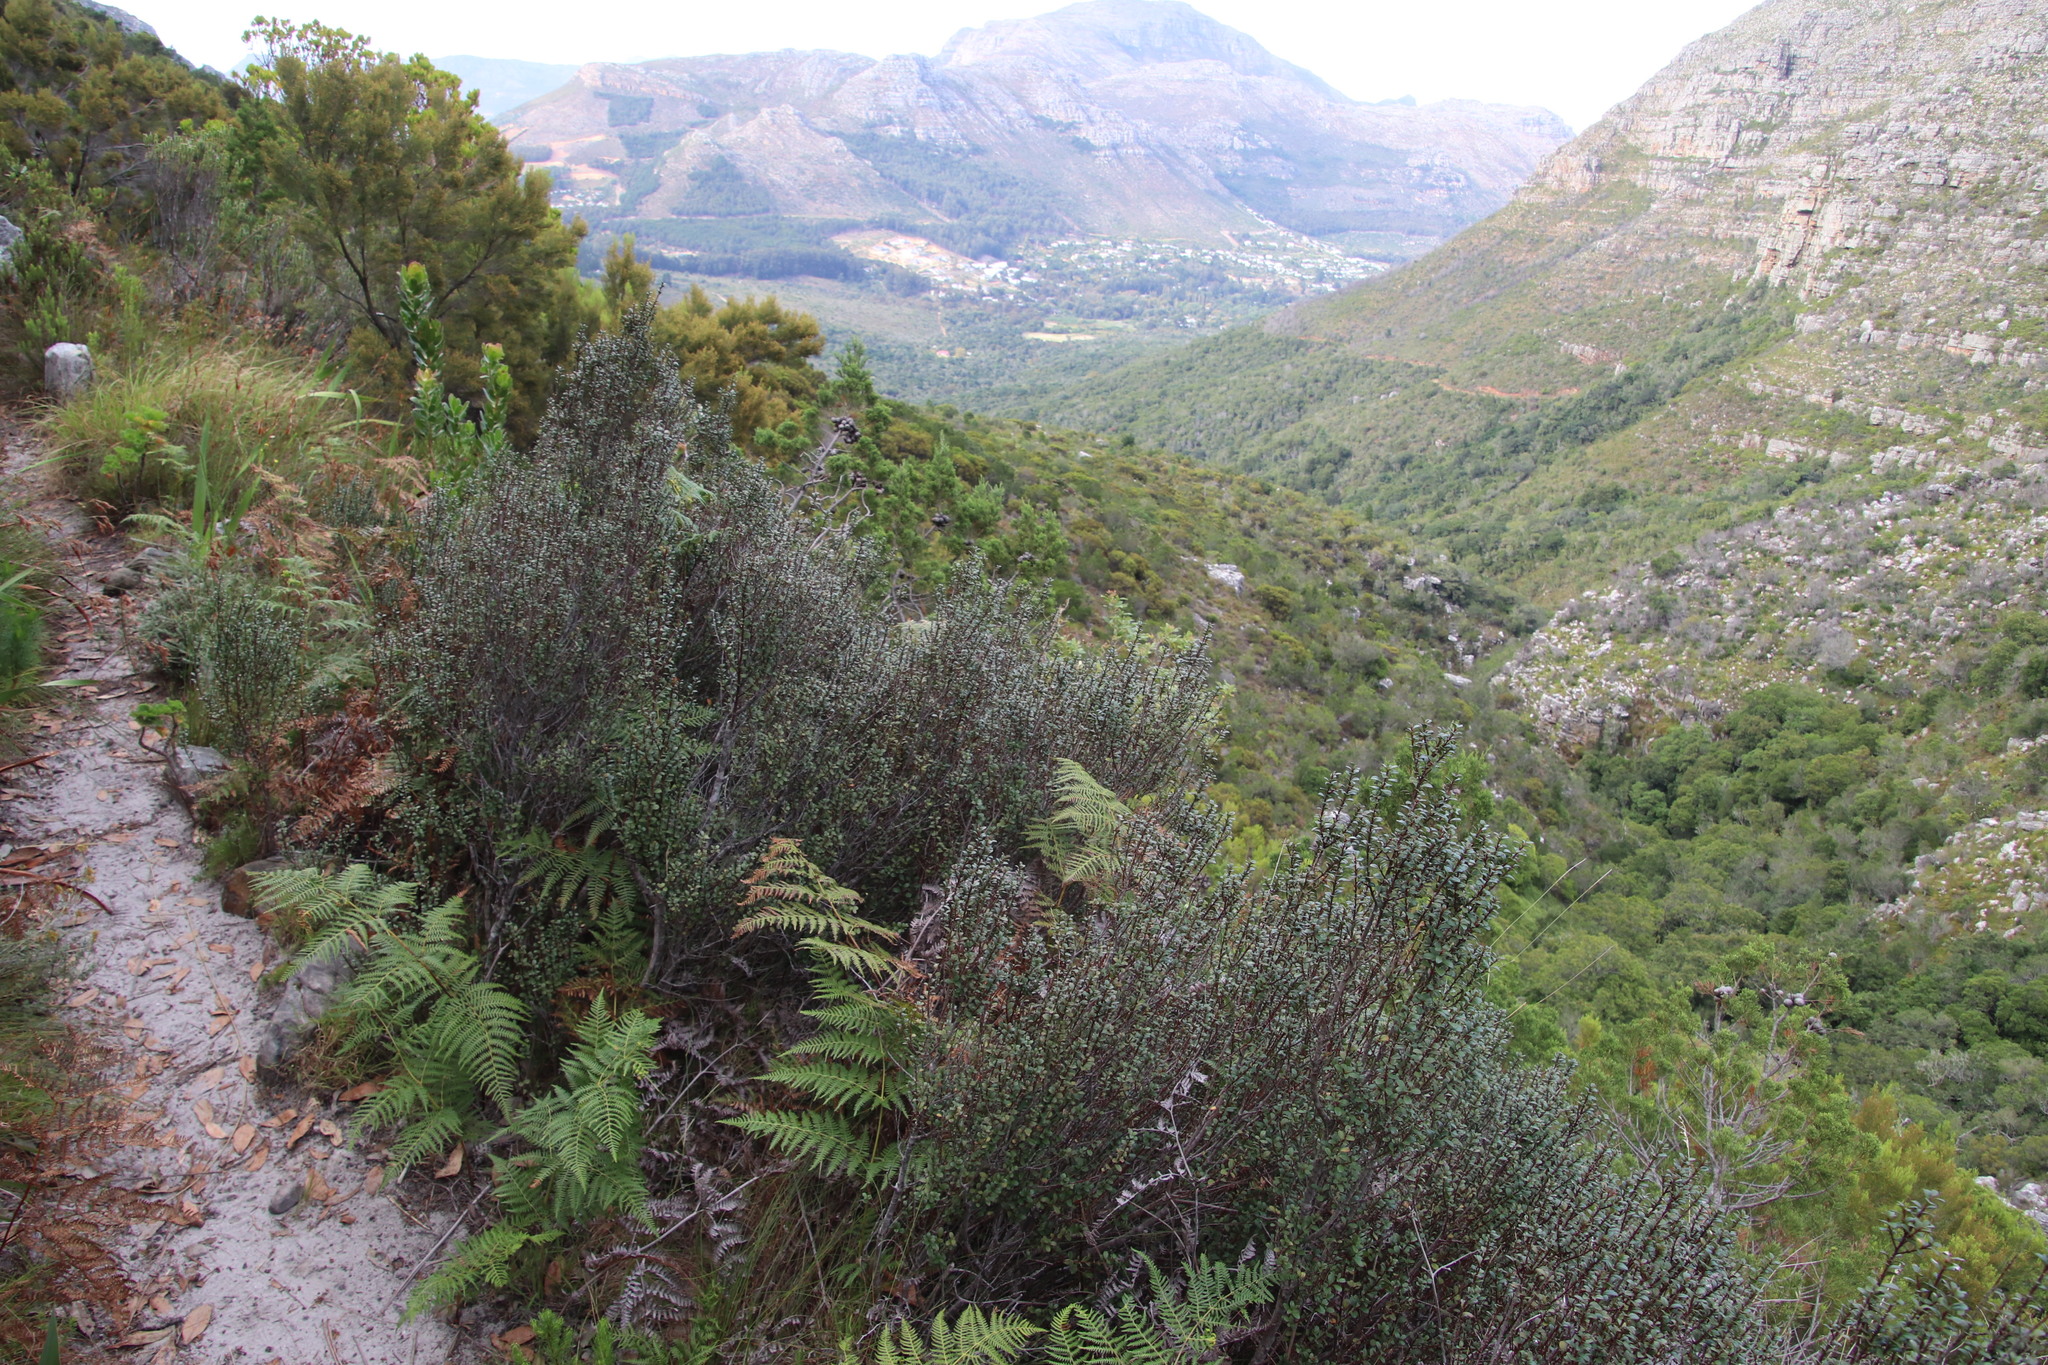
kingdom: Plantae
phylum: Tracheophyta
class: Magnoliopsida
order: Ericales
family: Primulaceae
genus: Myrsine
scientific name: Myrsine africana
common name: African-boxwood
